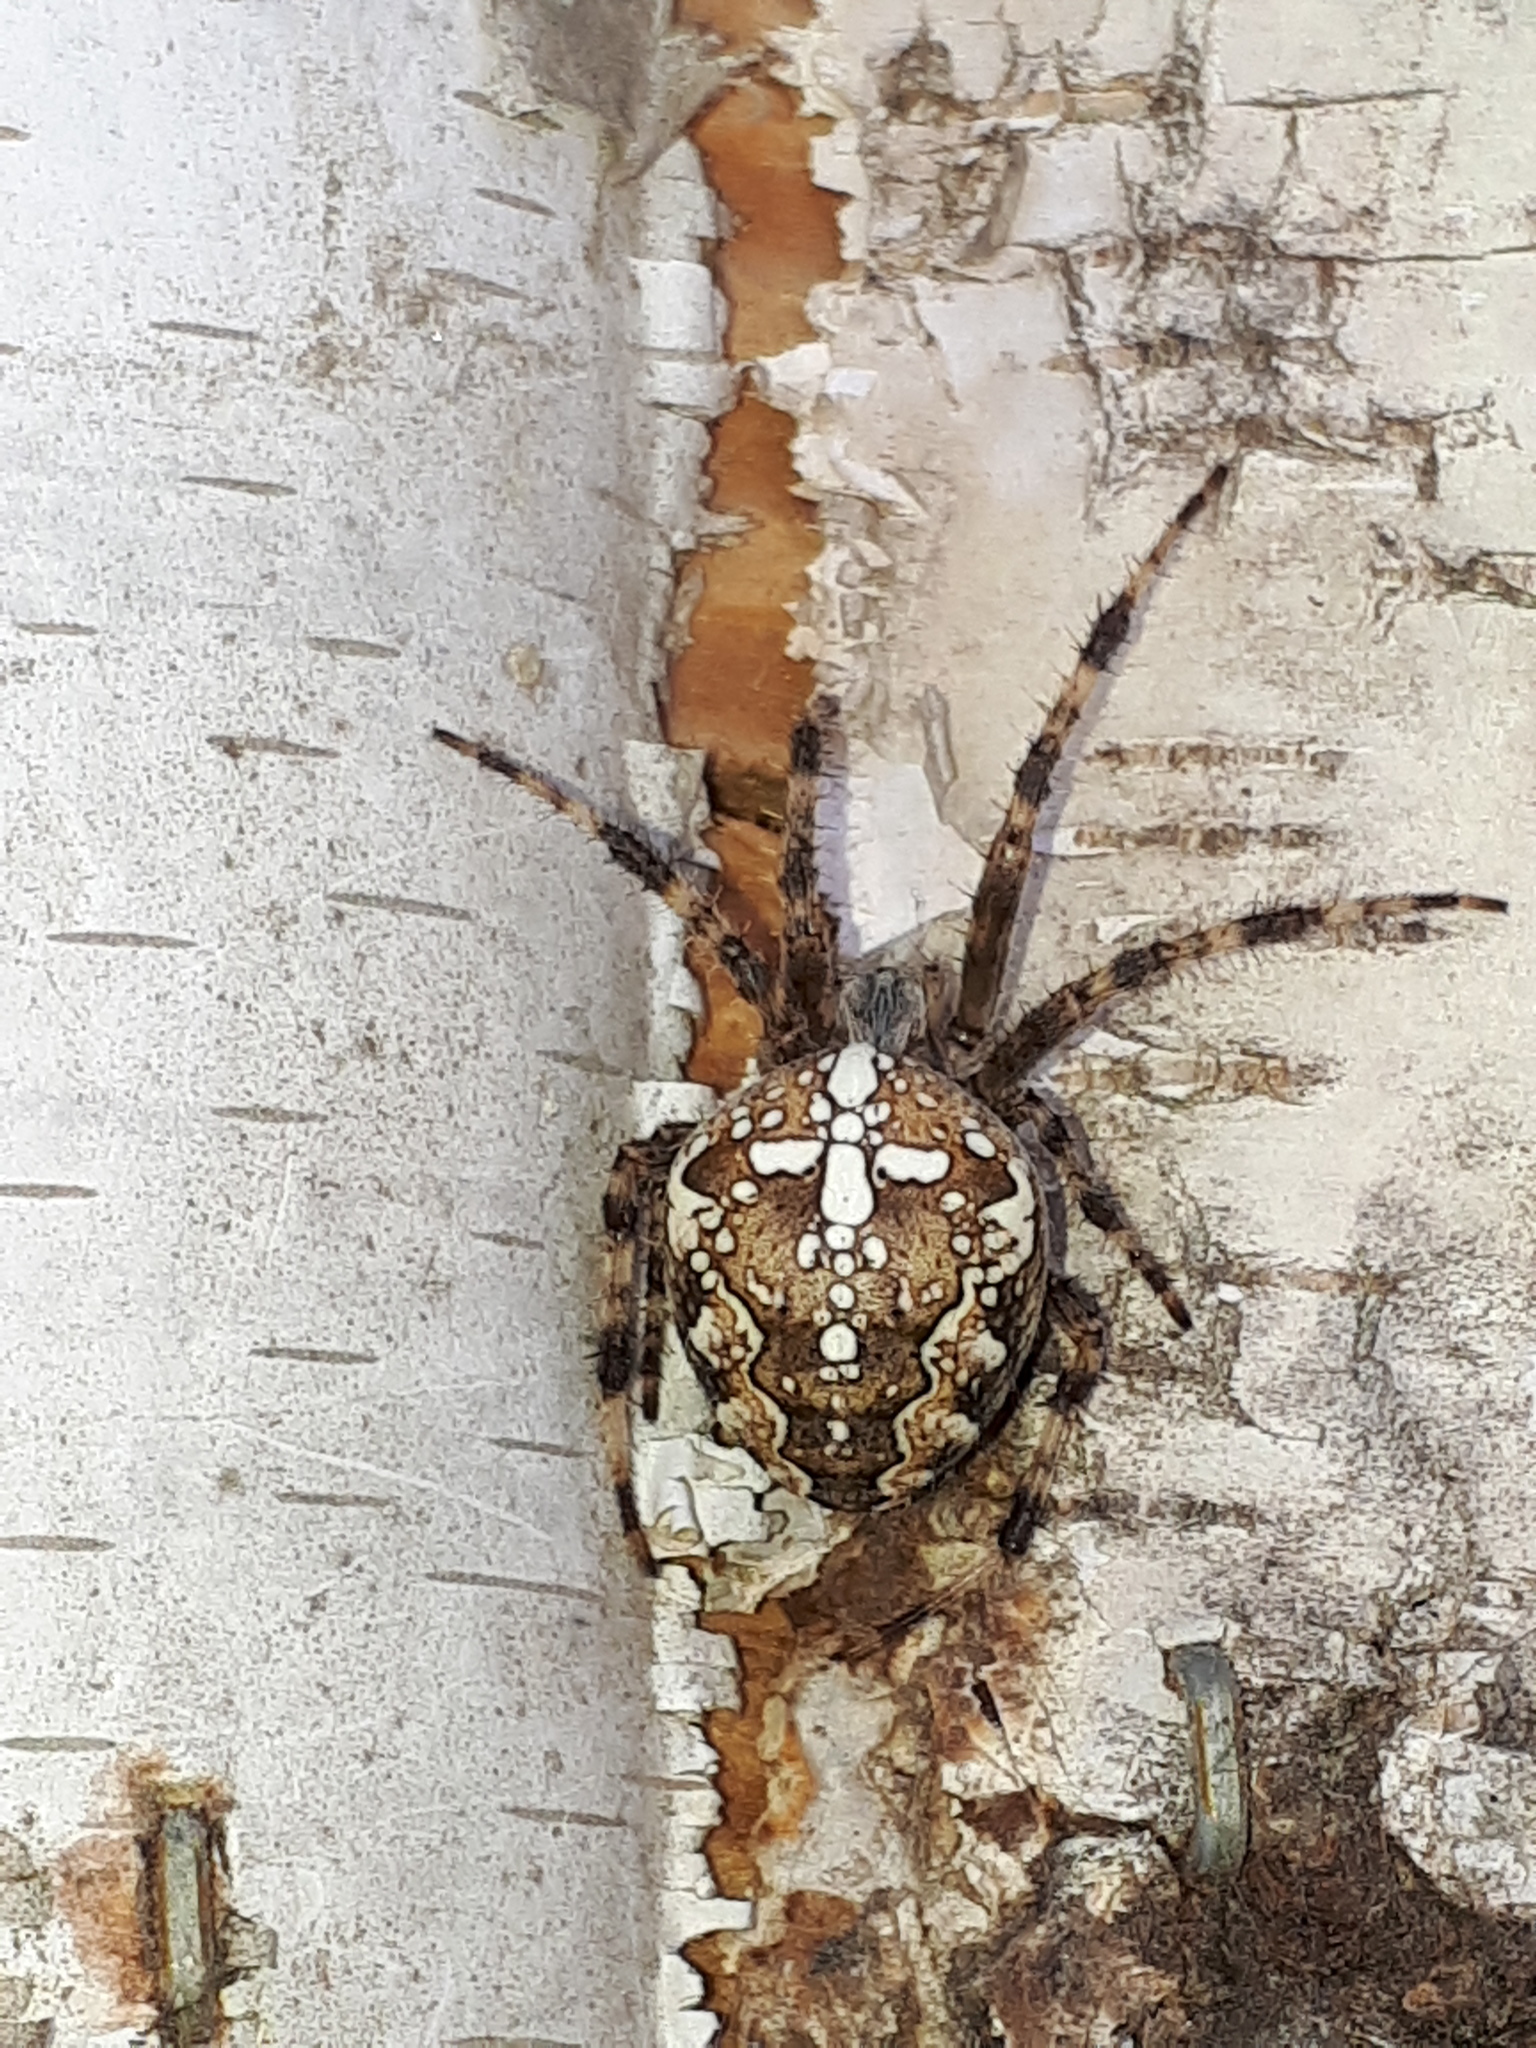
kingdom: Animalia
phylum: Arthropoda
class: Arachnida
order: Araneae
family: Araneidae
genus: Araneus
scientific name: Araneus diadematus
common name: Cross orbweaver
